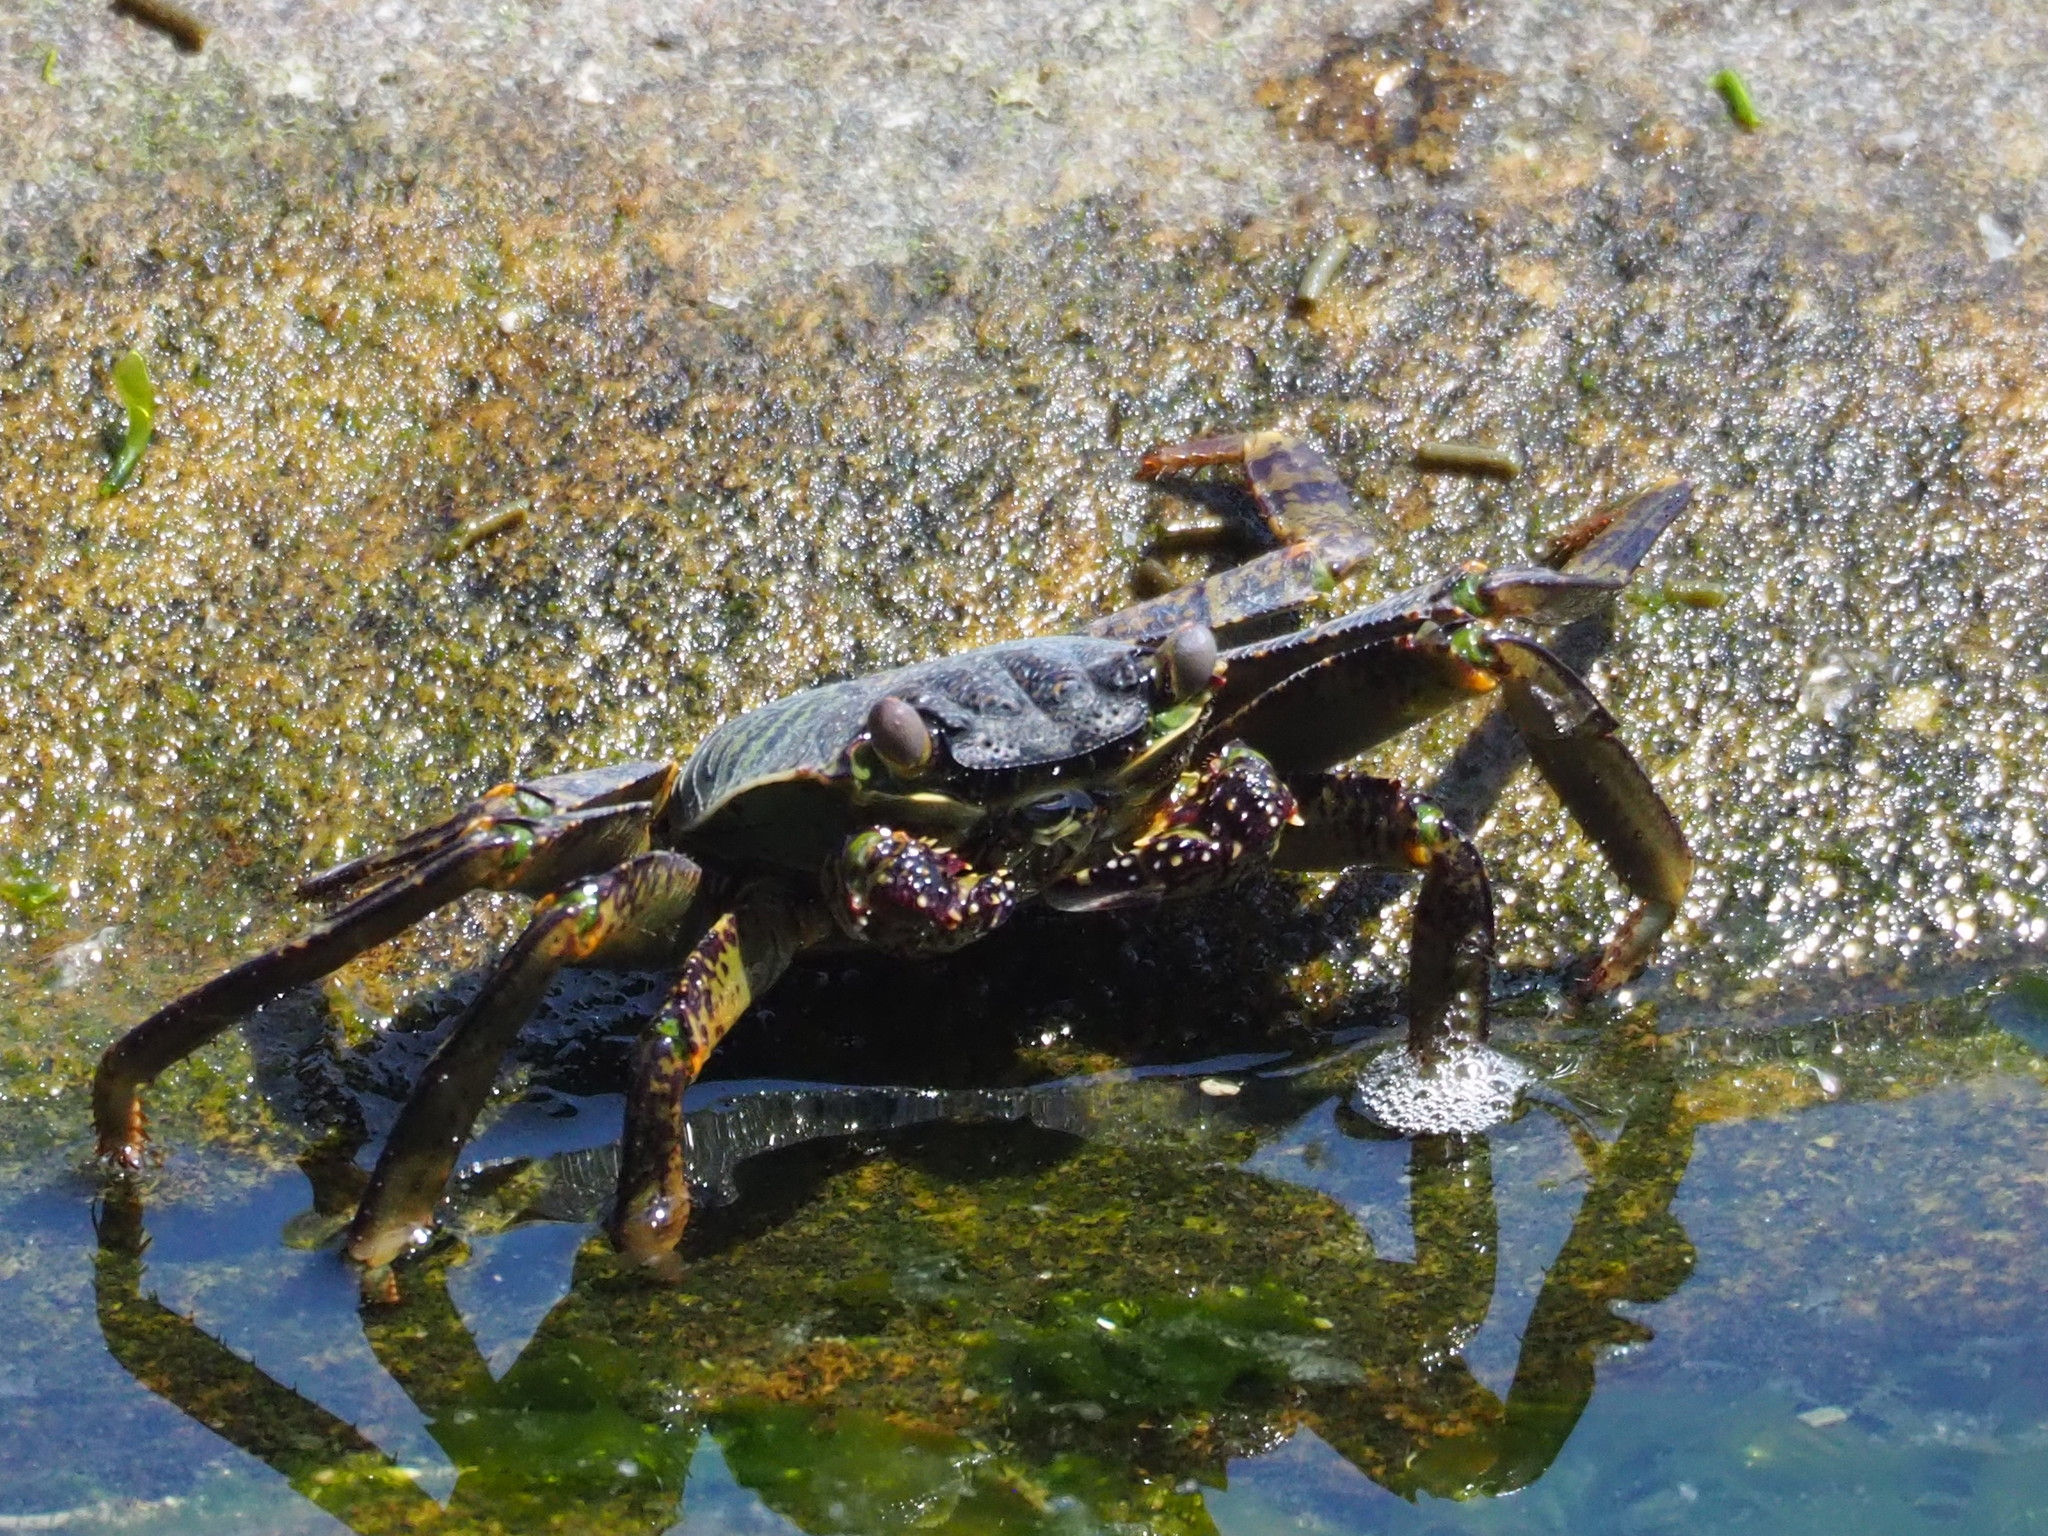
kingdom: Animalia
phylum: Arthropoda
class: Malacostraca
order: Decapoda
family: Grapsidae
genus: Grapsus
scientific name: Grapsus albolineatus
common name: Mottled lightfoot crab
